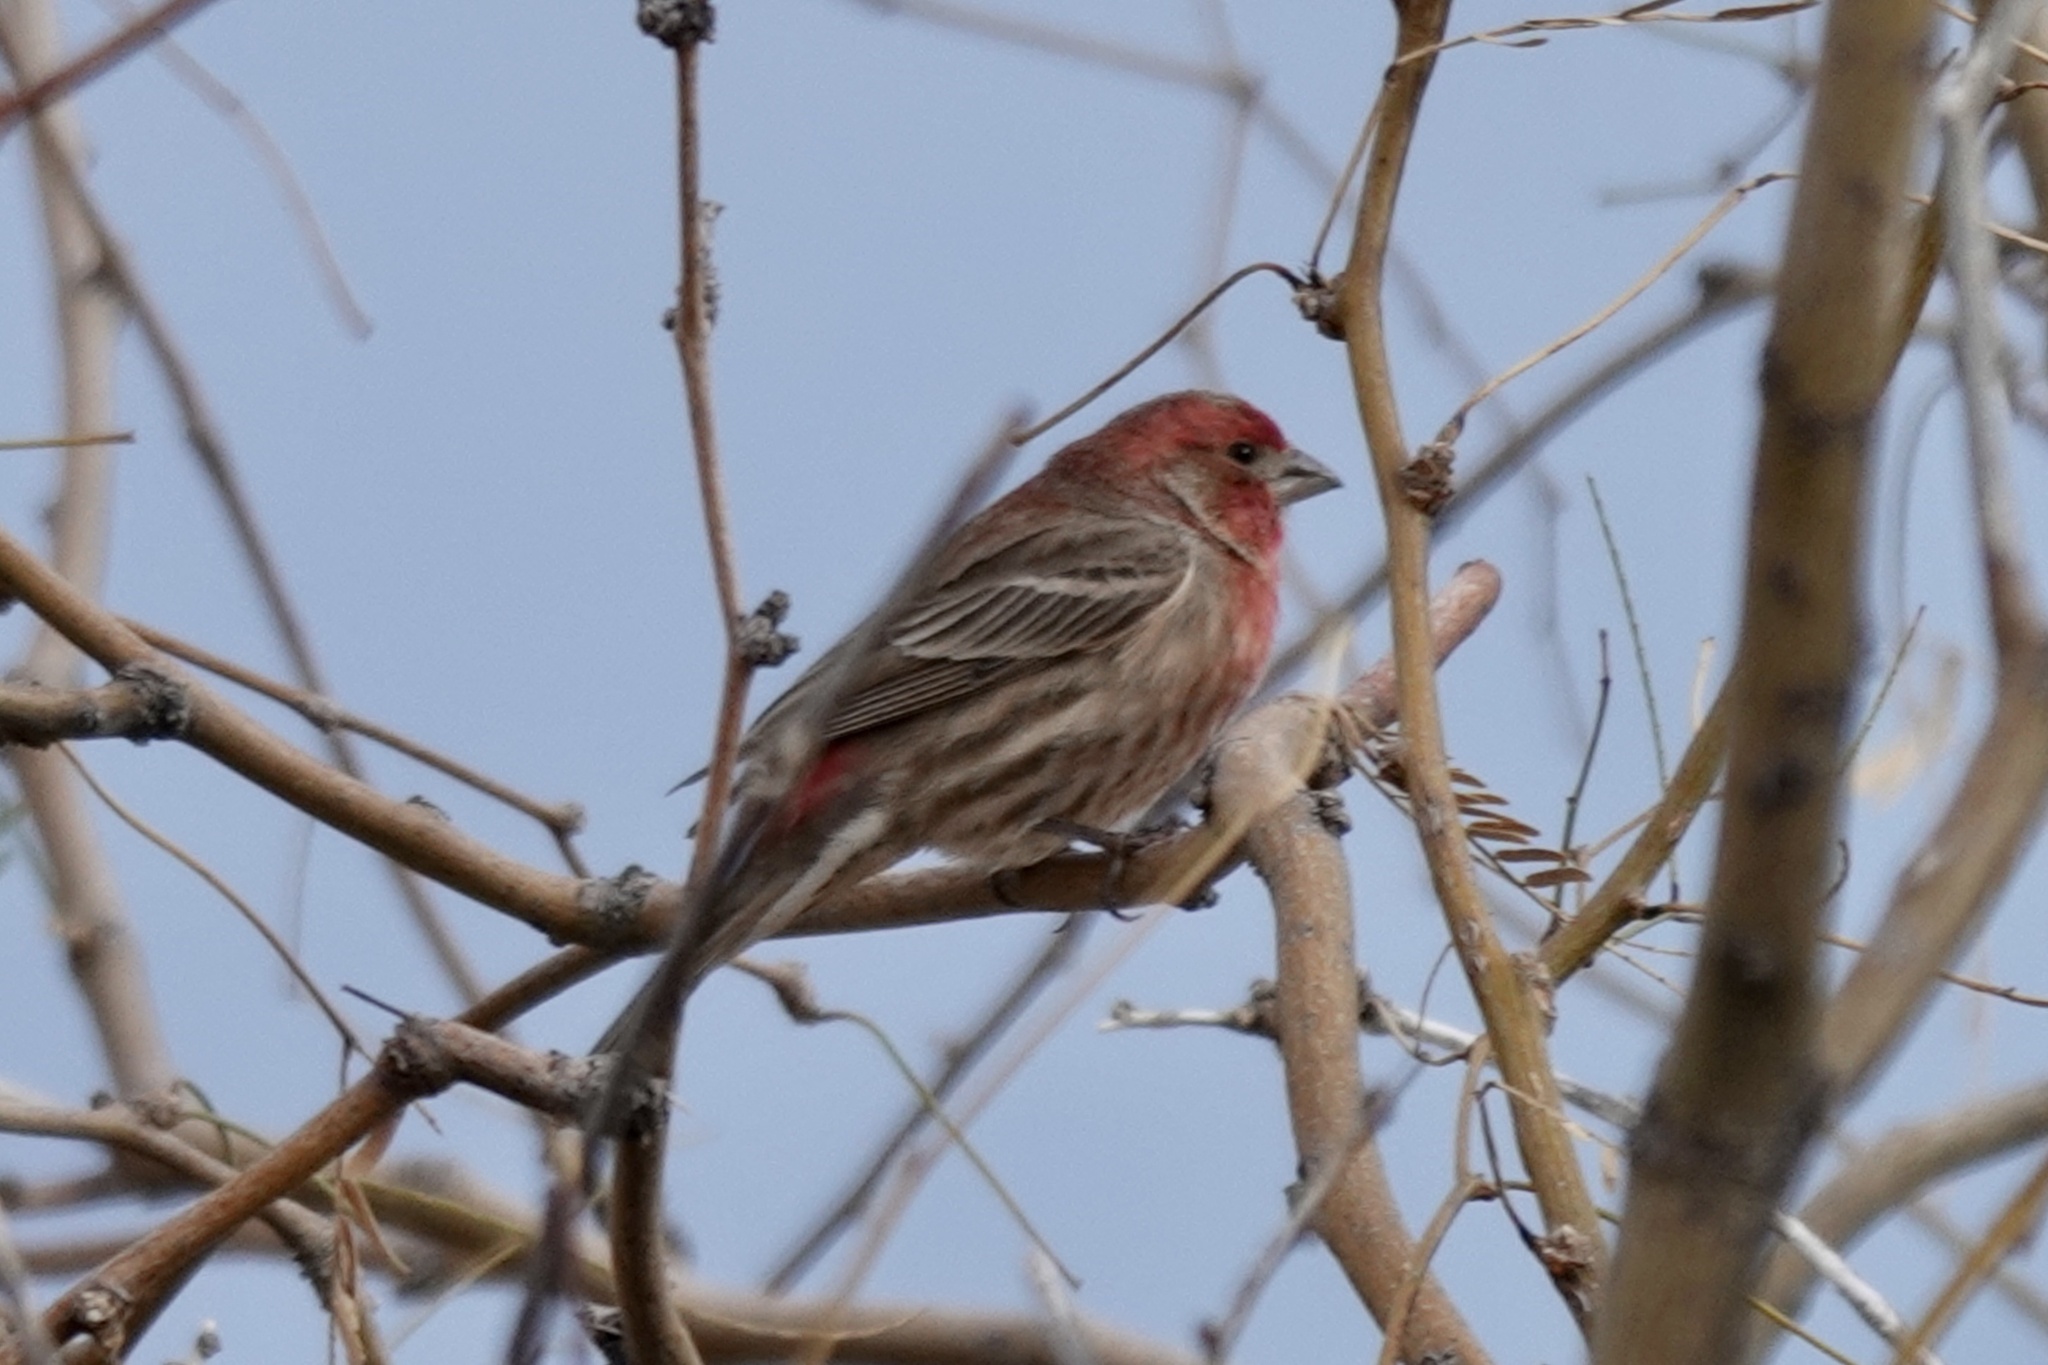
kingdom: Animalia
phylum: Chordata
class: Aves
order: Passeriformes
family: Fringillidae
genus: Haemorhous
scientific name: Haemorhous mexicanus
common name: House finch
